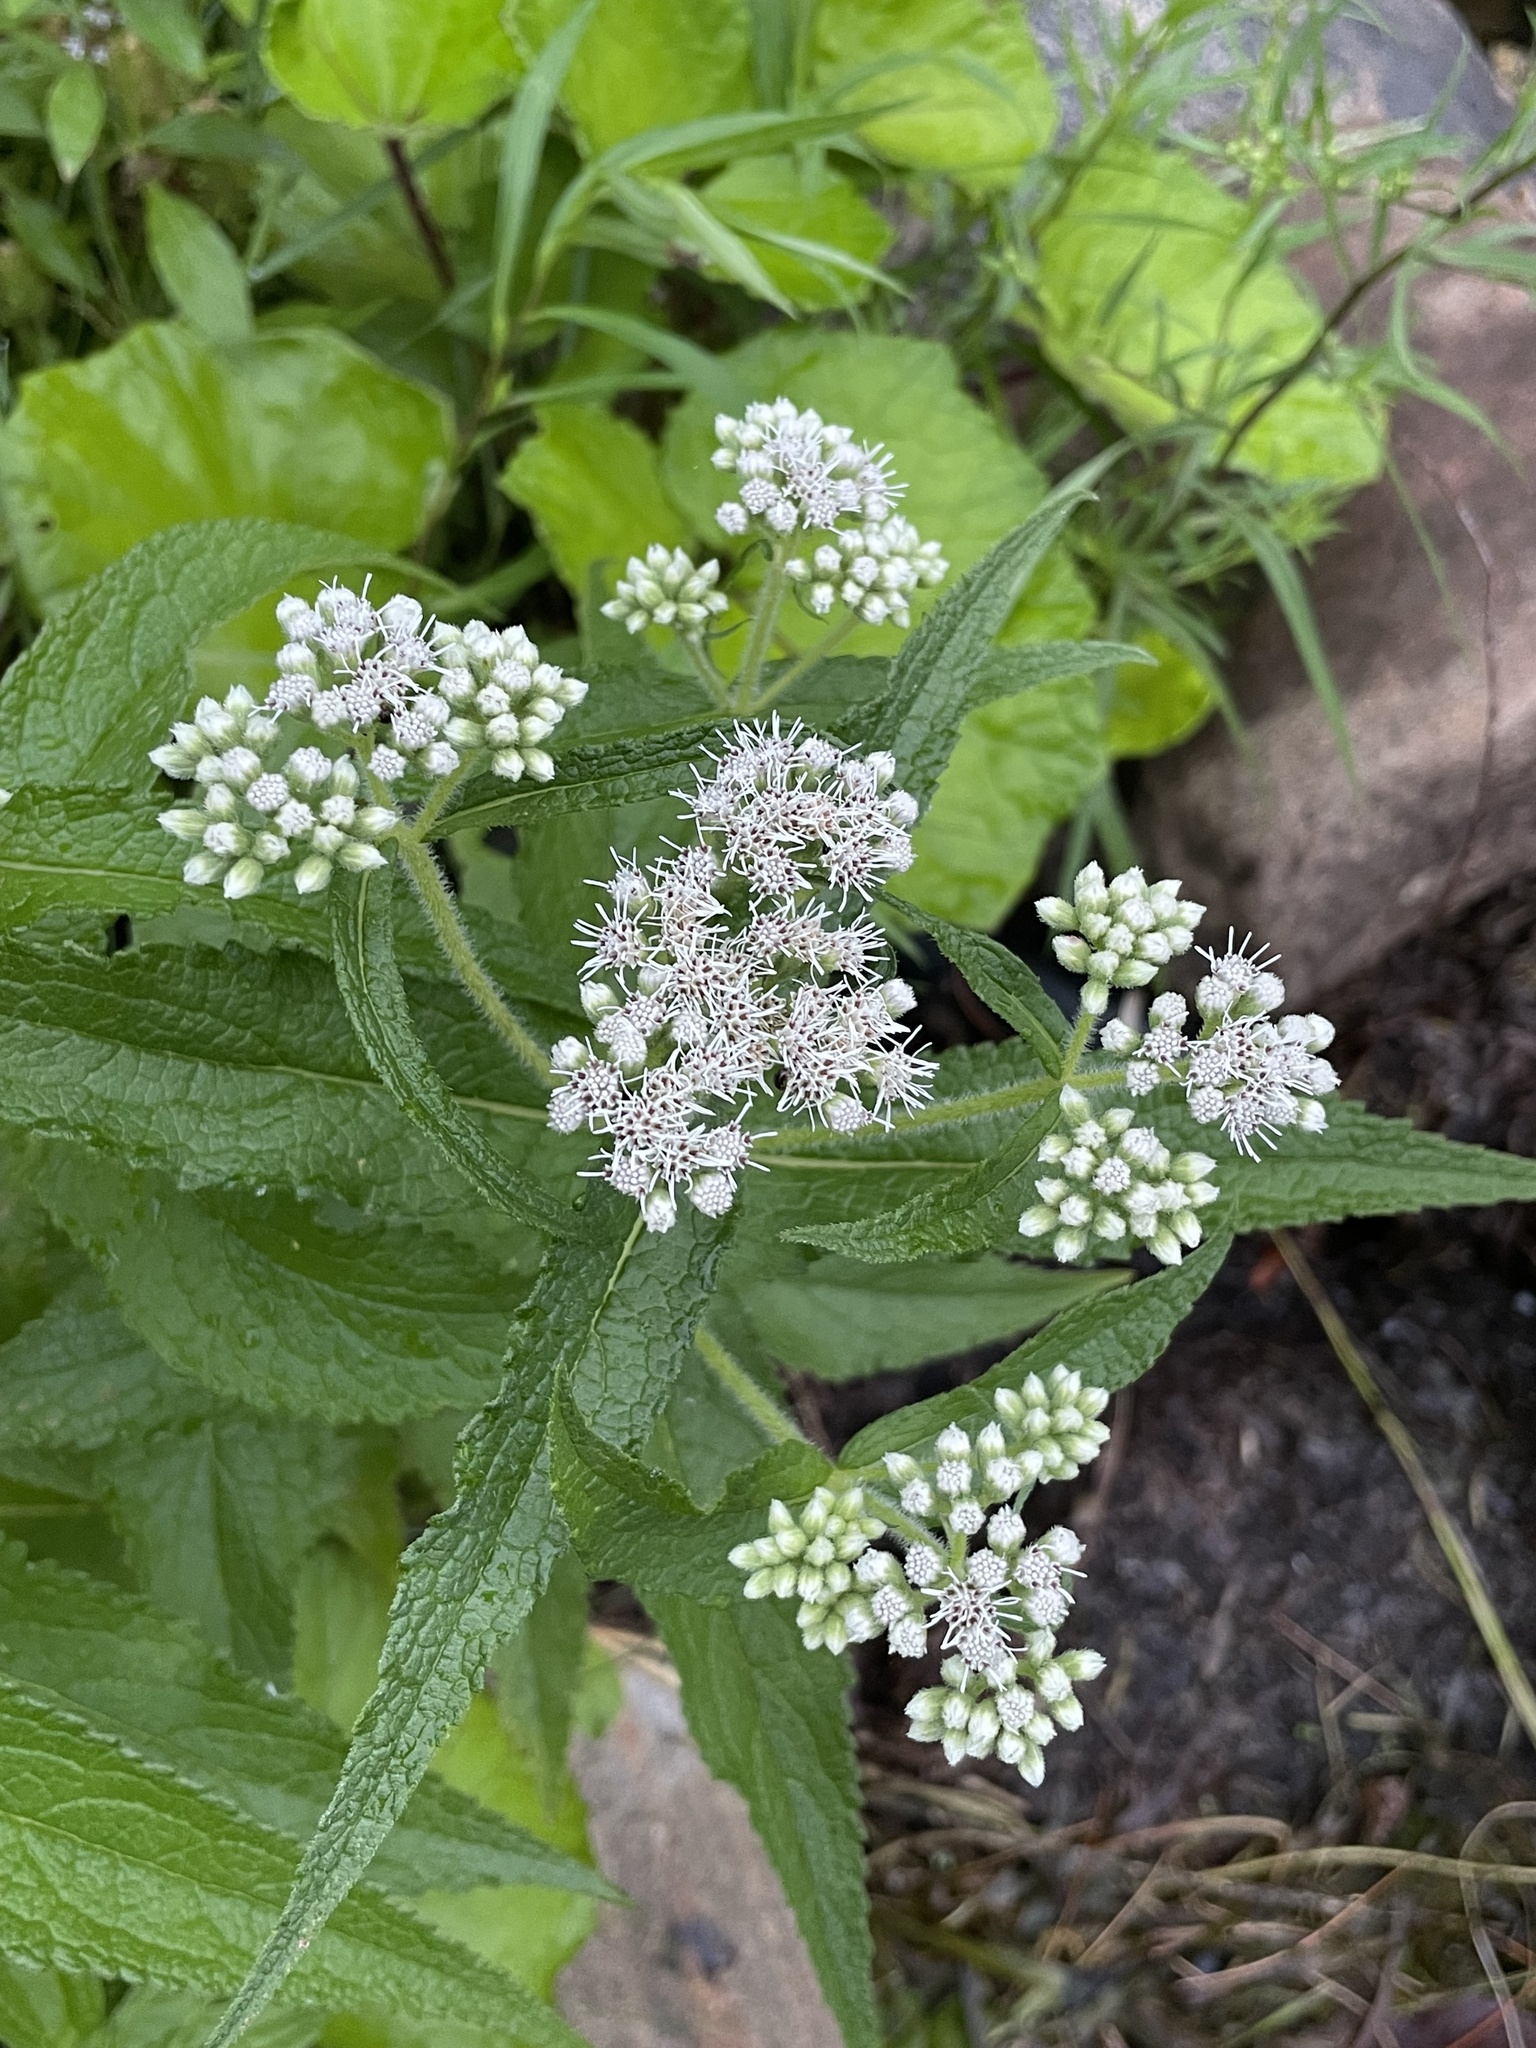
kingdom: Plantae
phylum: Tracheophyta
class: Magnoliopsida
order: Asterales
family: Asteraceae
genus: Eupatorium
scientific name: Eupatorium perfoliatum
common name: Boneset
